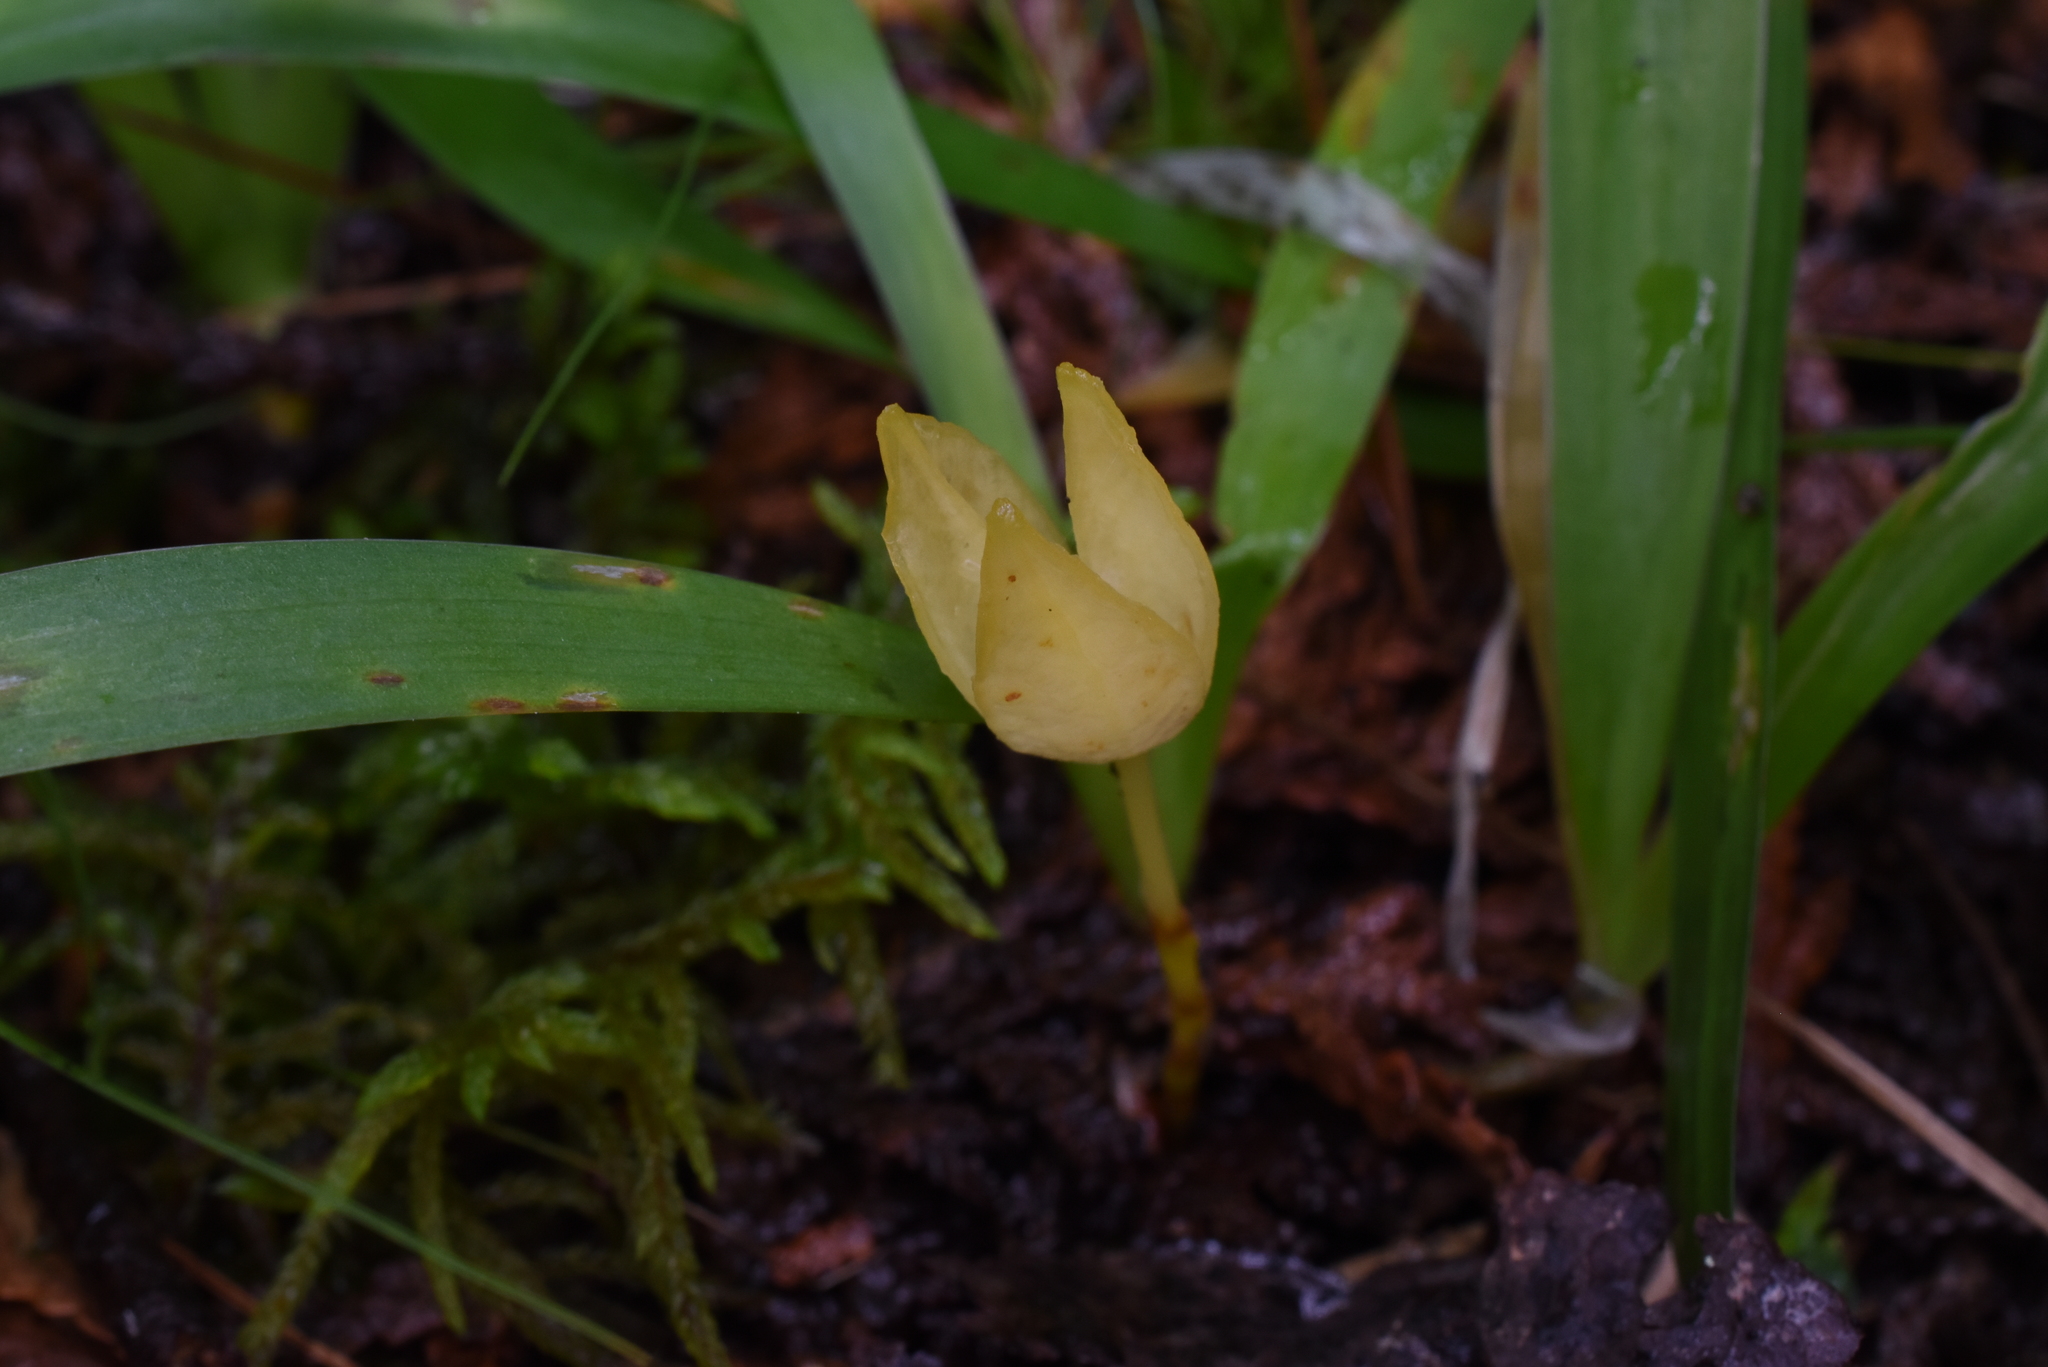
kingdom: Plantae
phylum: Tracheophyta
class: Liliopsida
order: Asparagales
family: Iridaceae
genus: Iris
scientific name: Iris lacustris
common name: Dwarf lake iris
